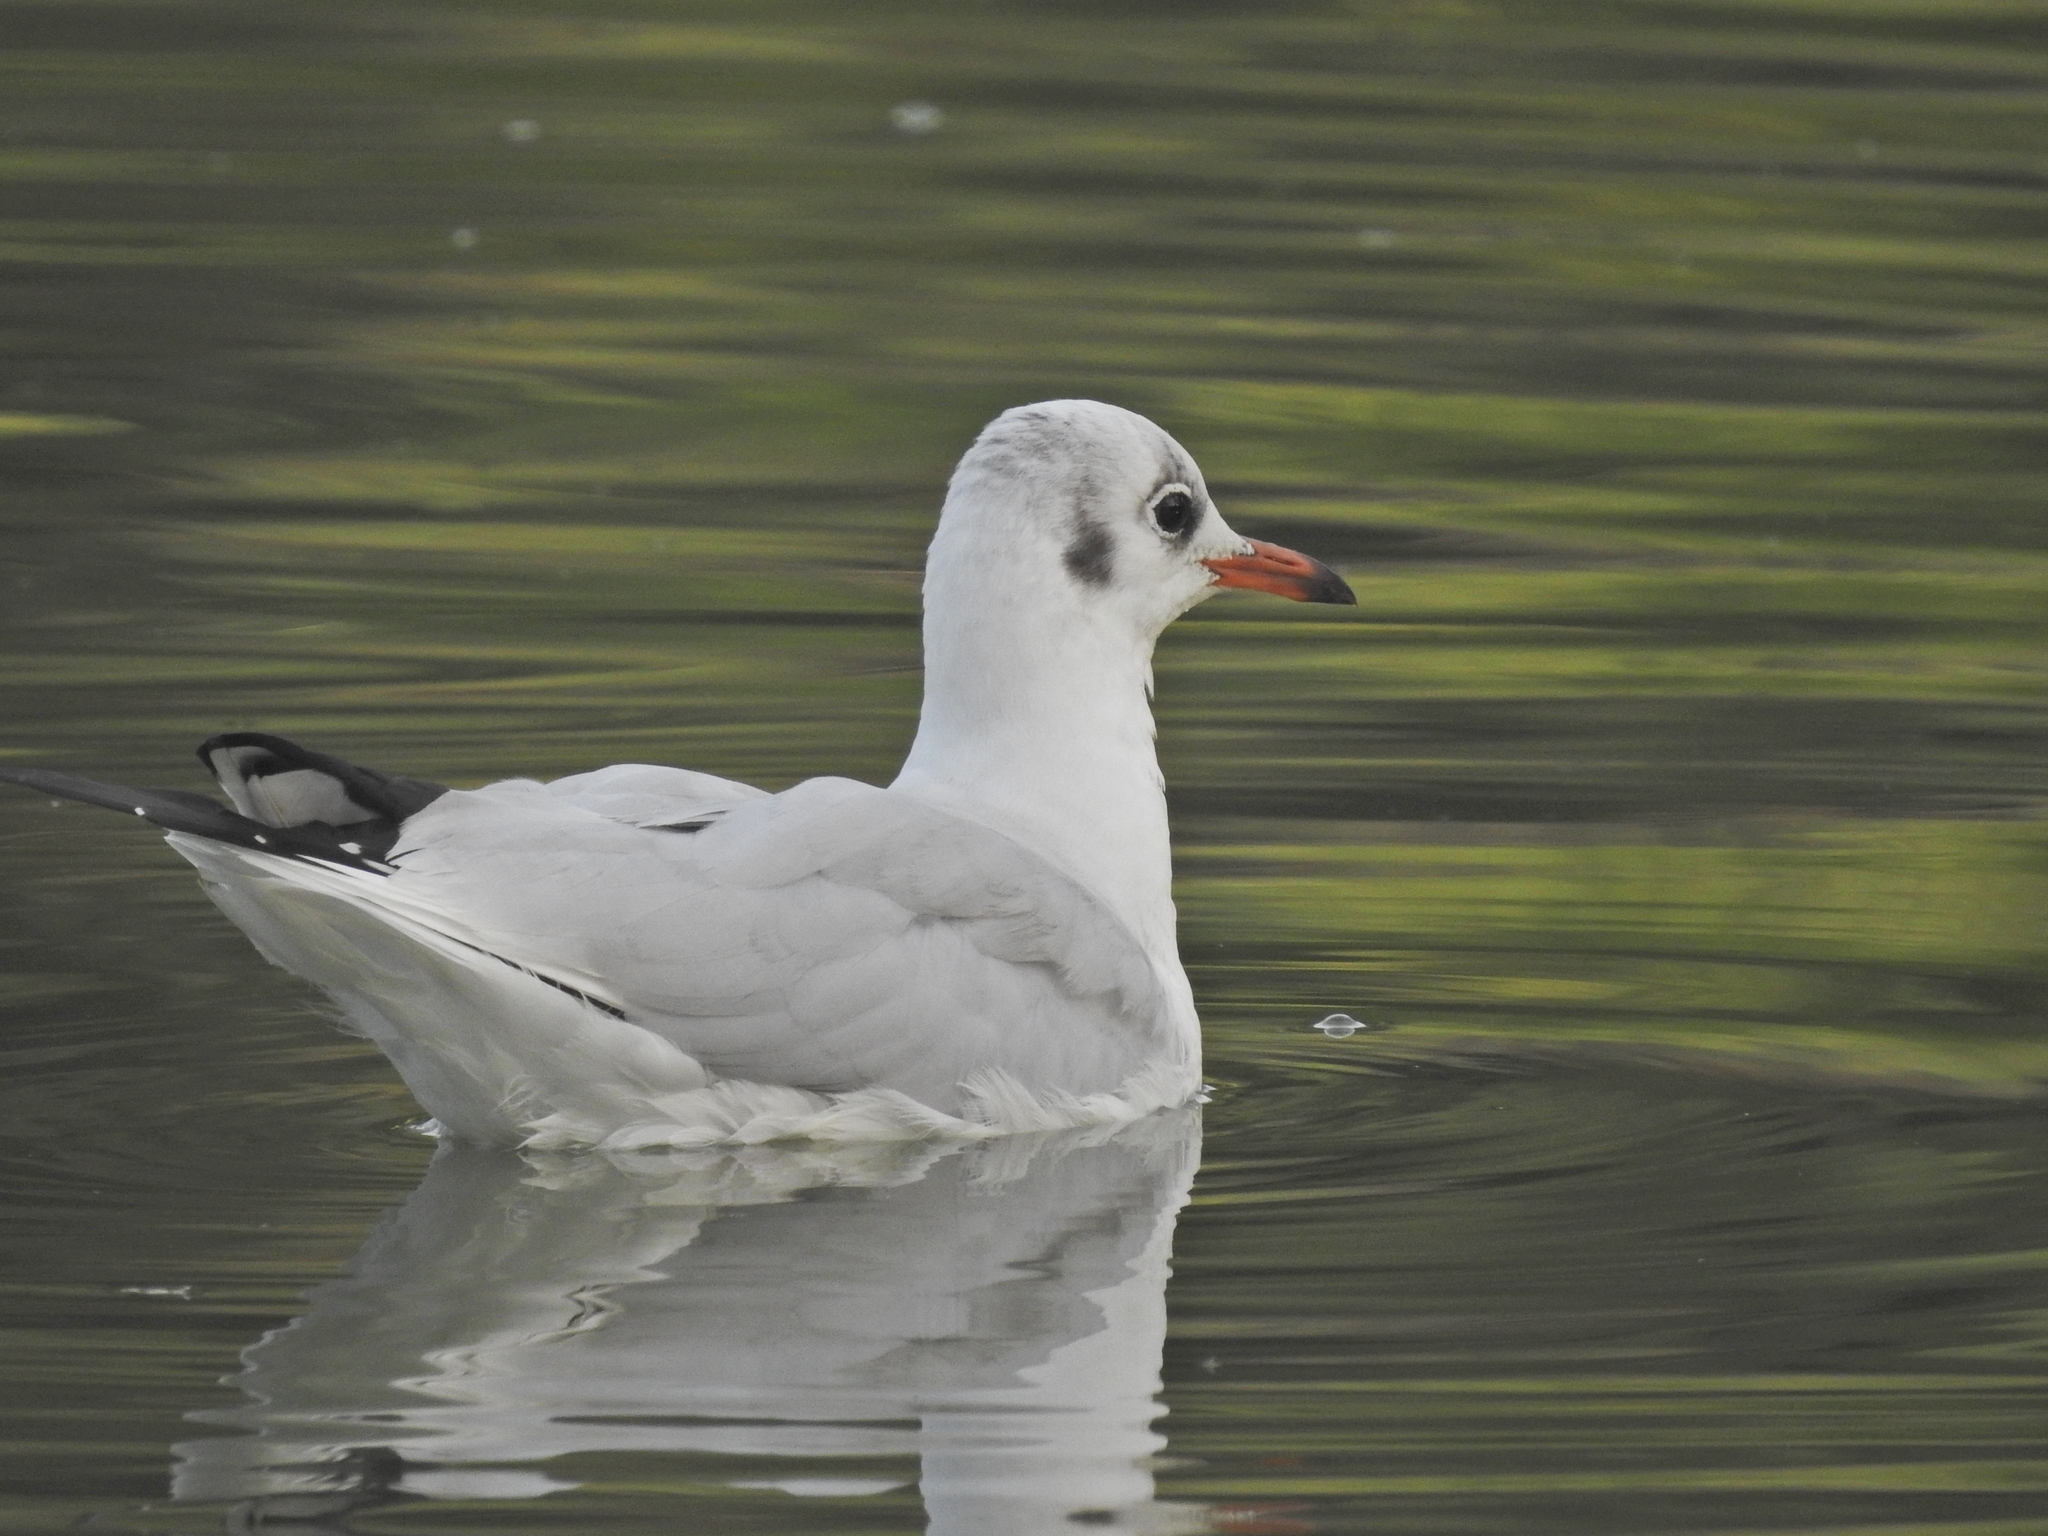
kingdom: Animalia
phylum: Chordata
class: Aves
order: Charadriiformes
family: Laridae
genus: Chroicocephalus
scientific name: Chroicocephalus ridibundus
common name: Black-headed gull
